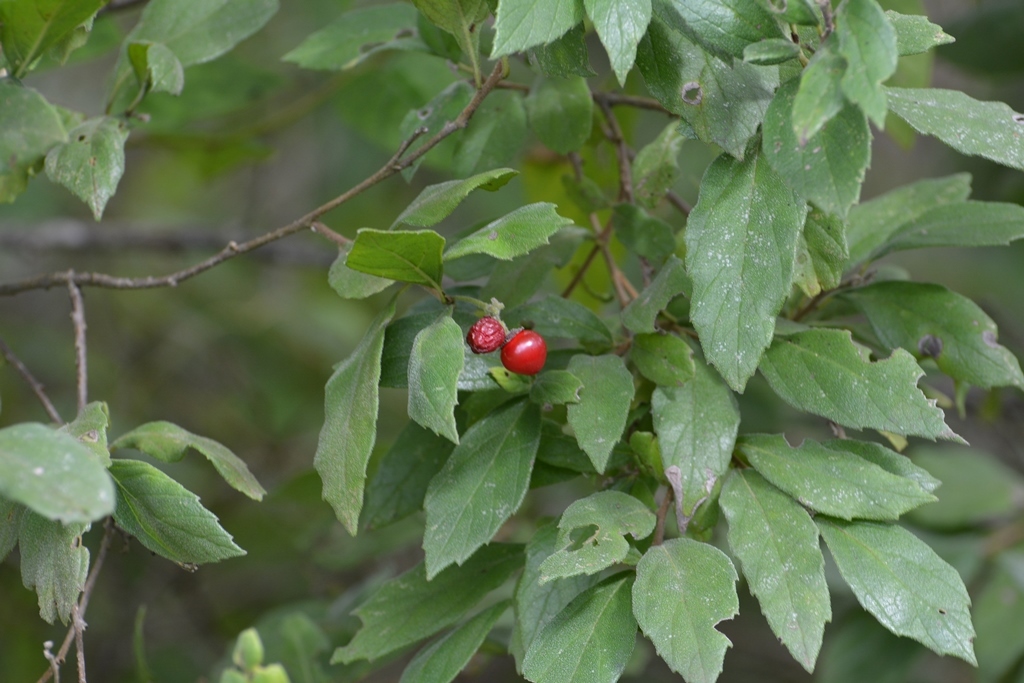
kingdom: Plantae
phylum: Tracheophyta
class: Magnoliopsida
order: Boraginales
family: Cordiaceae
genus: Varronia
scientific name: Varronia foliosa
